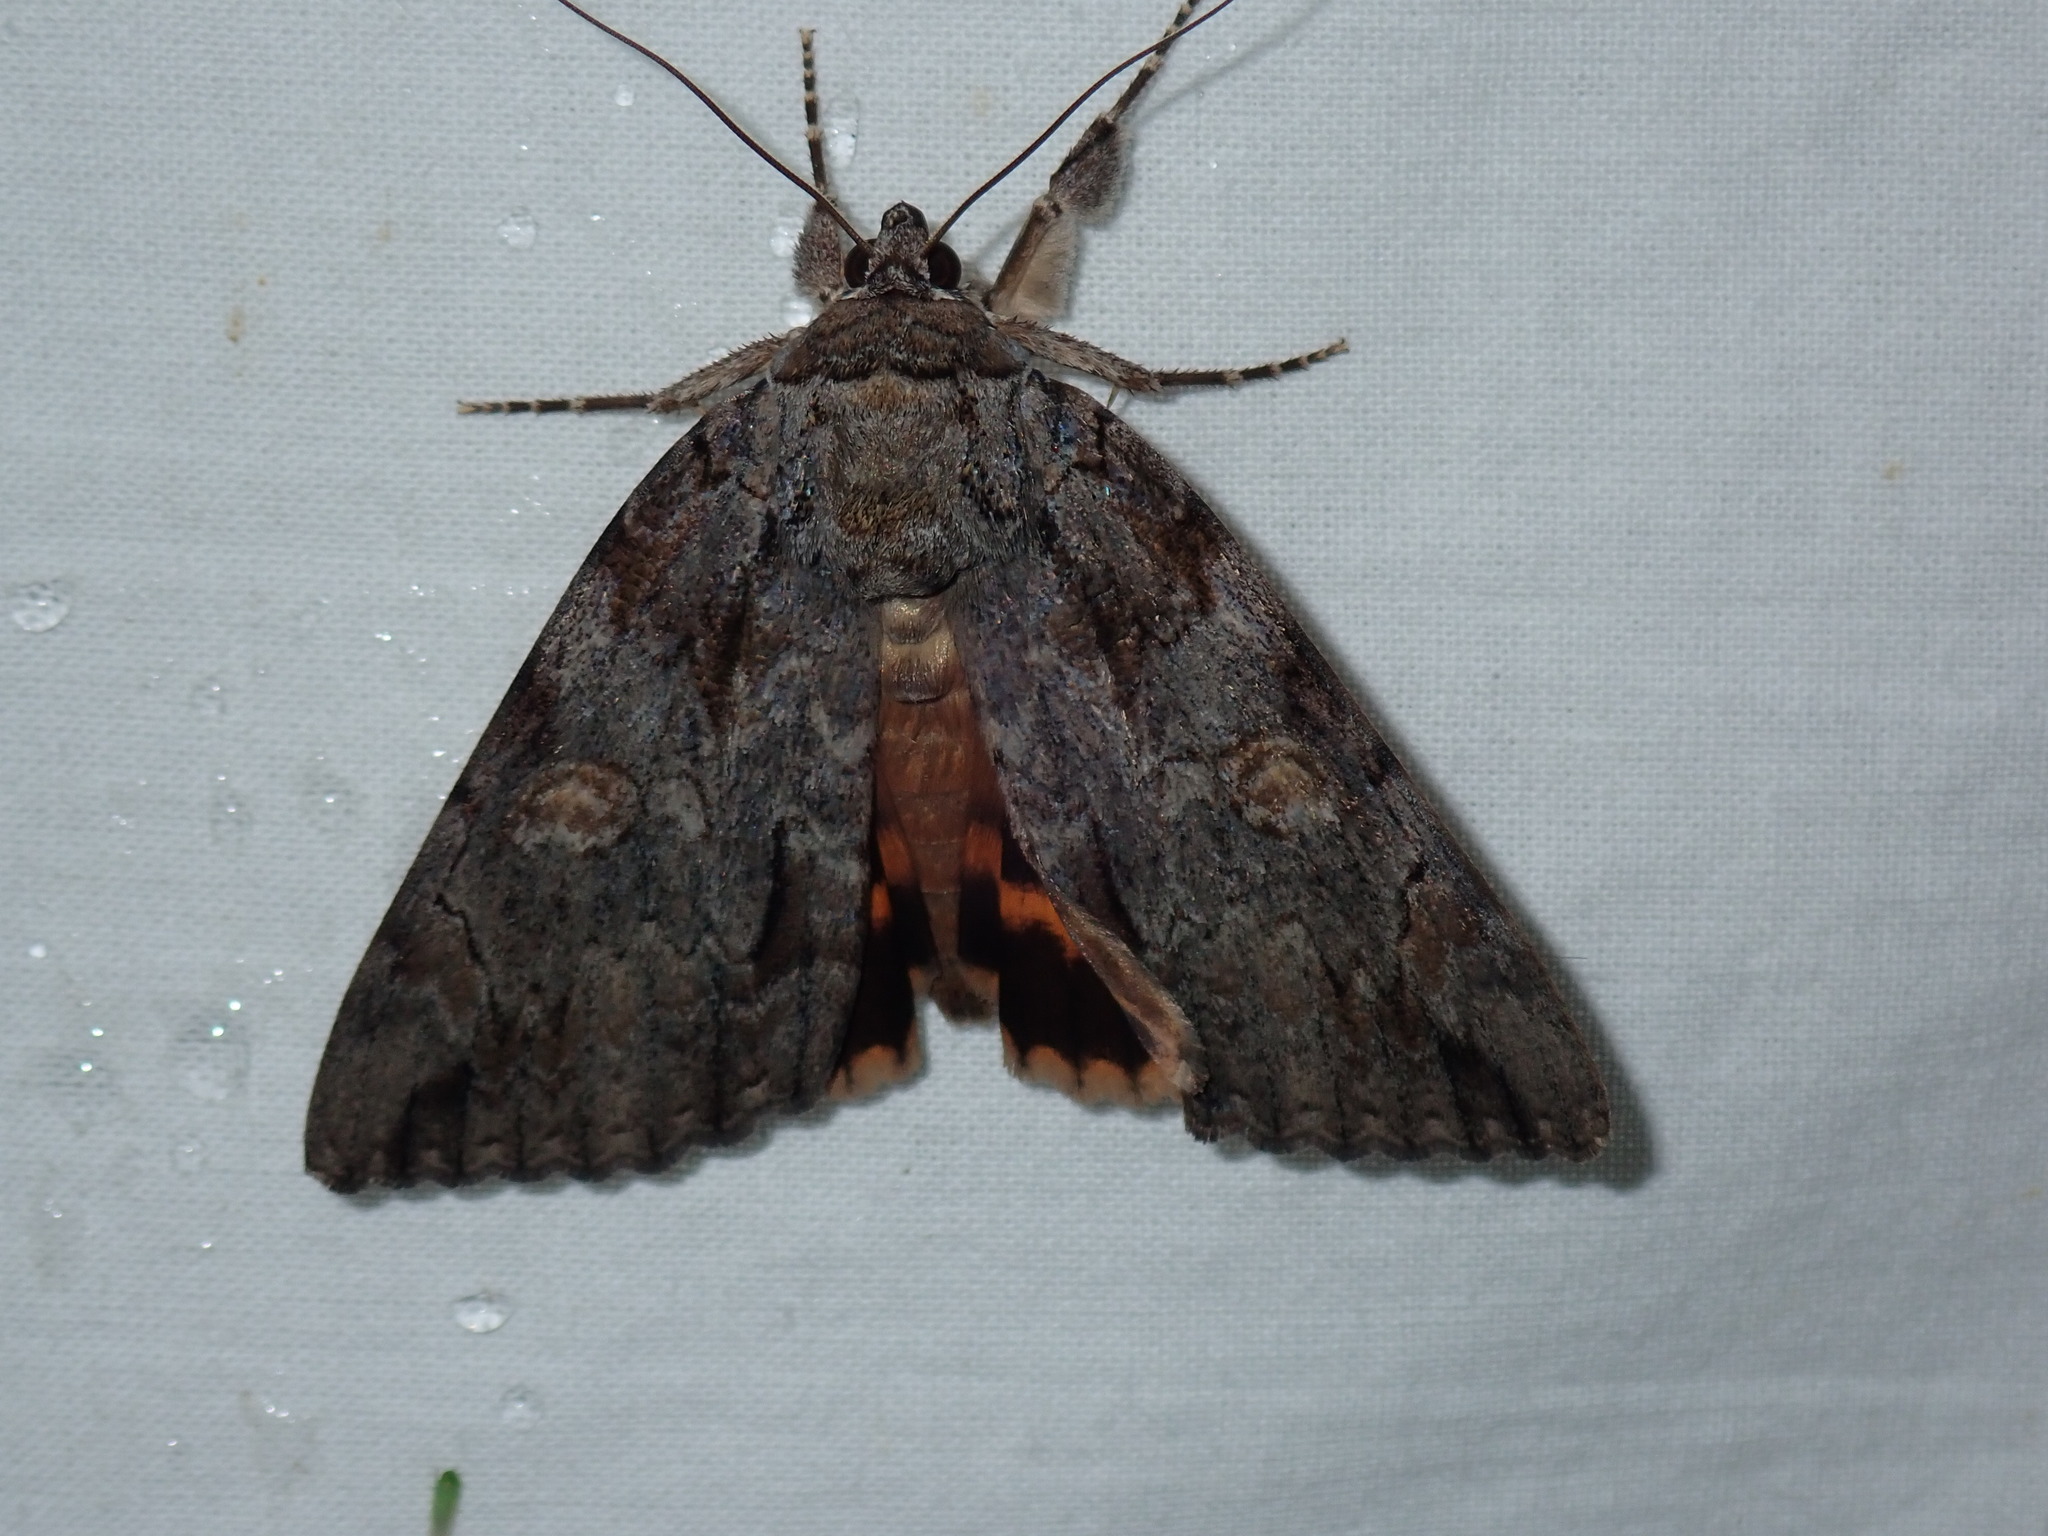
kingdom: Animalia
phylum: Arthropoda
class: Insecta
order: Lepidoptera
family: Erebidae
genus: Catocala
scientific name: Catocala neogama
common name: Bride underwing
